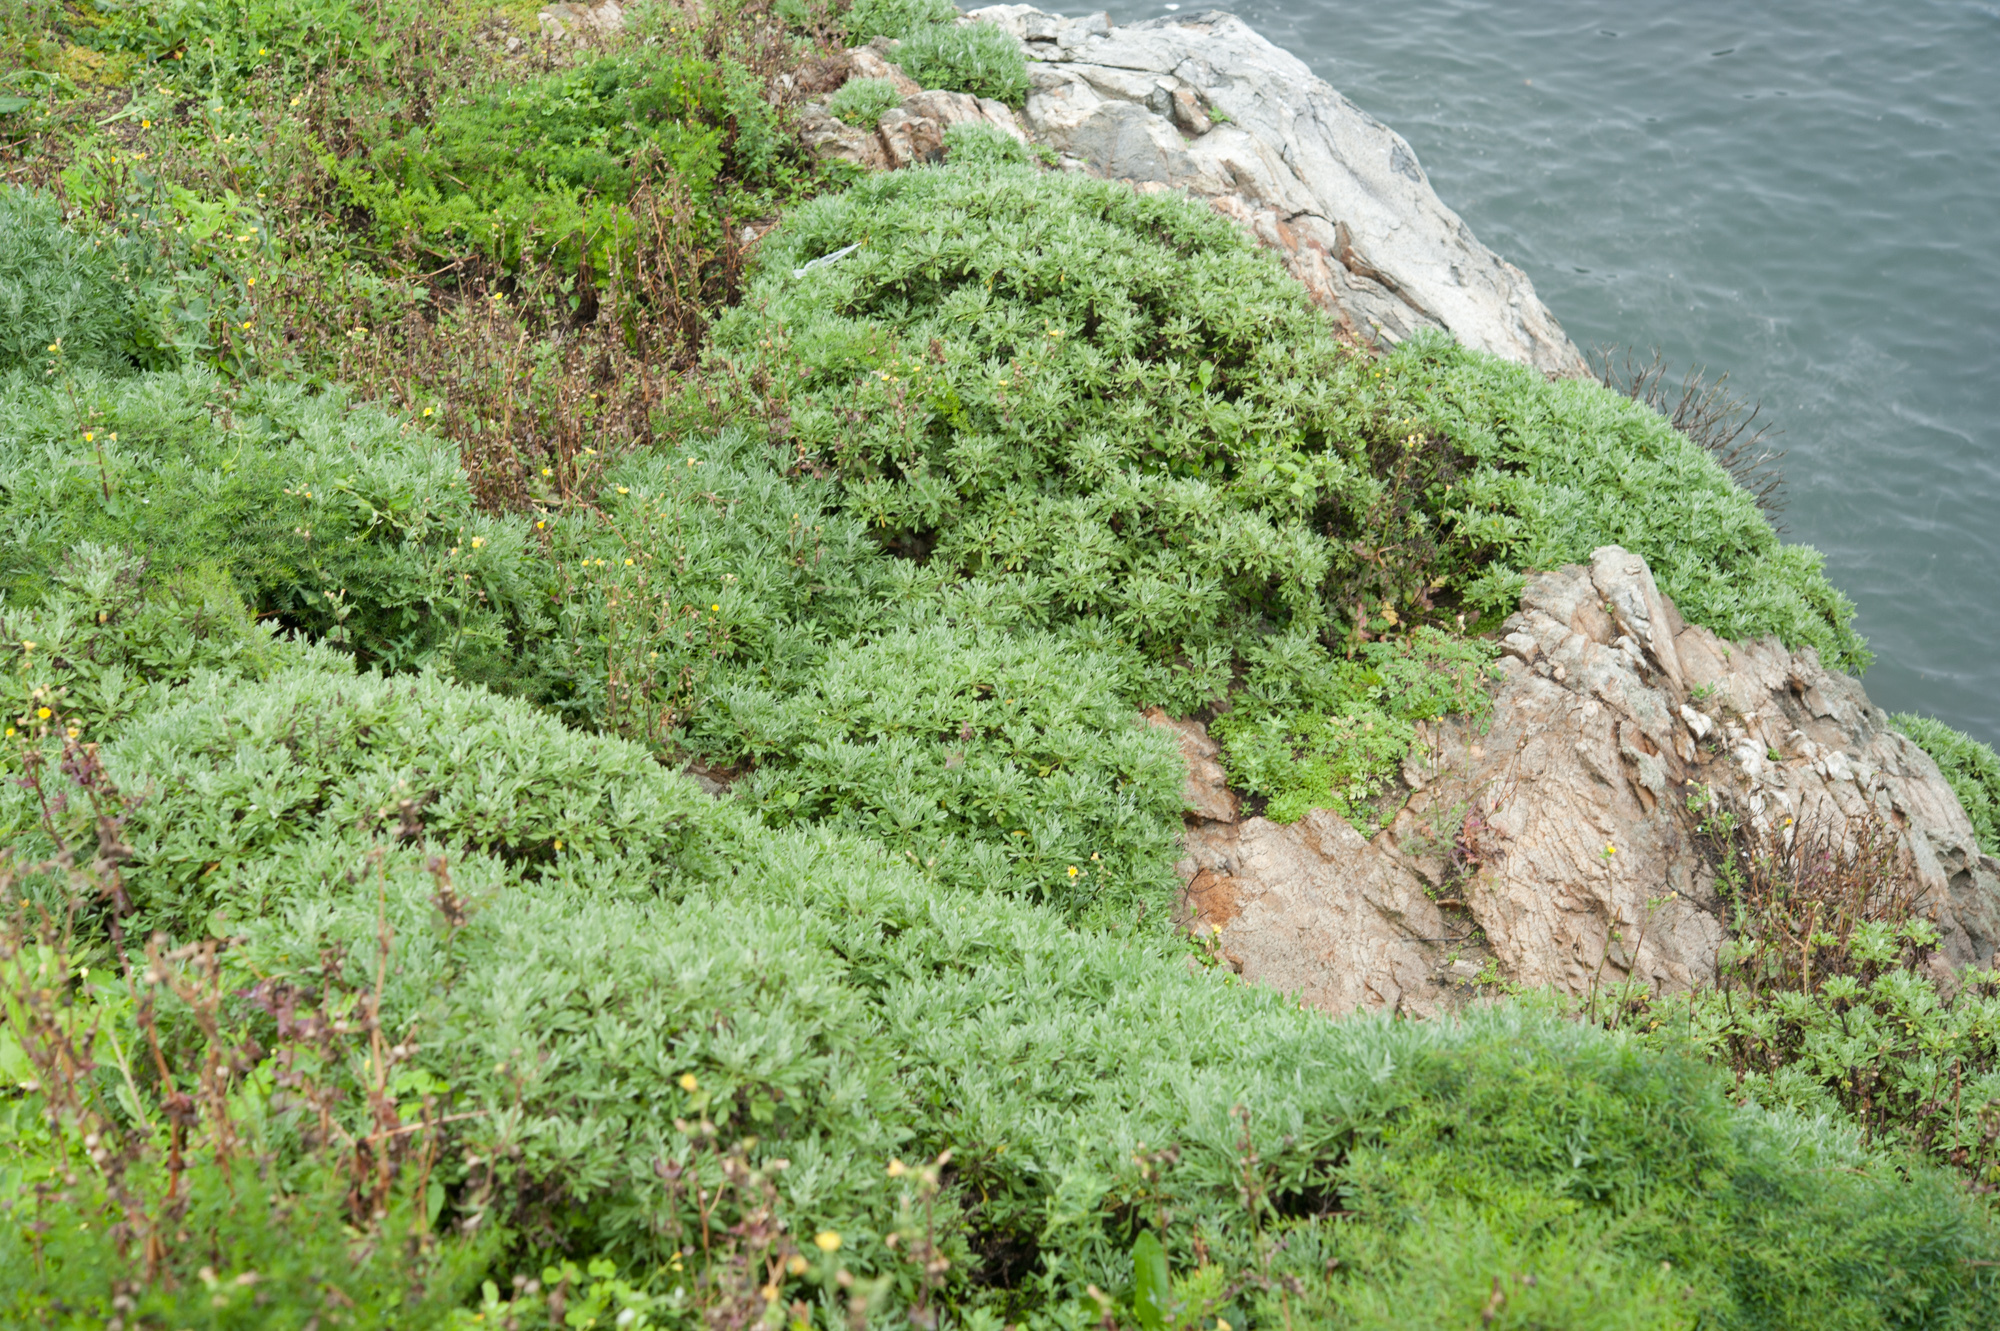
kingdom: Plantae
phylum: Tracheophyta
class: Magnoliopsida
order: Asterales
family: Asteraceae
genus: Crossostephium
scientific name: Crossostephium chinense
